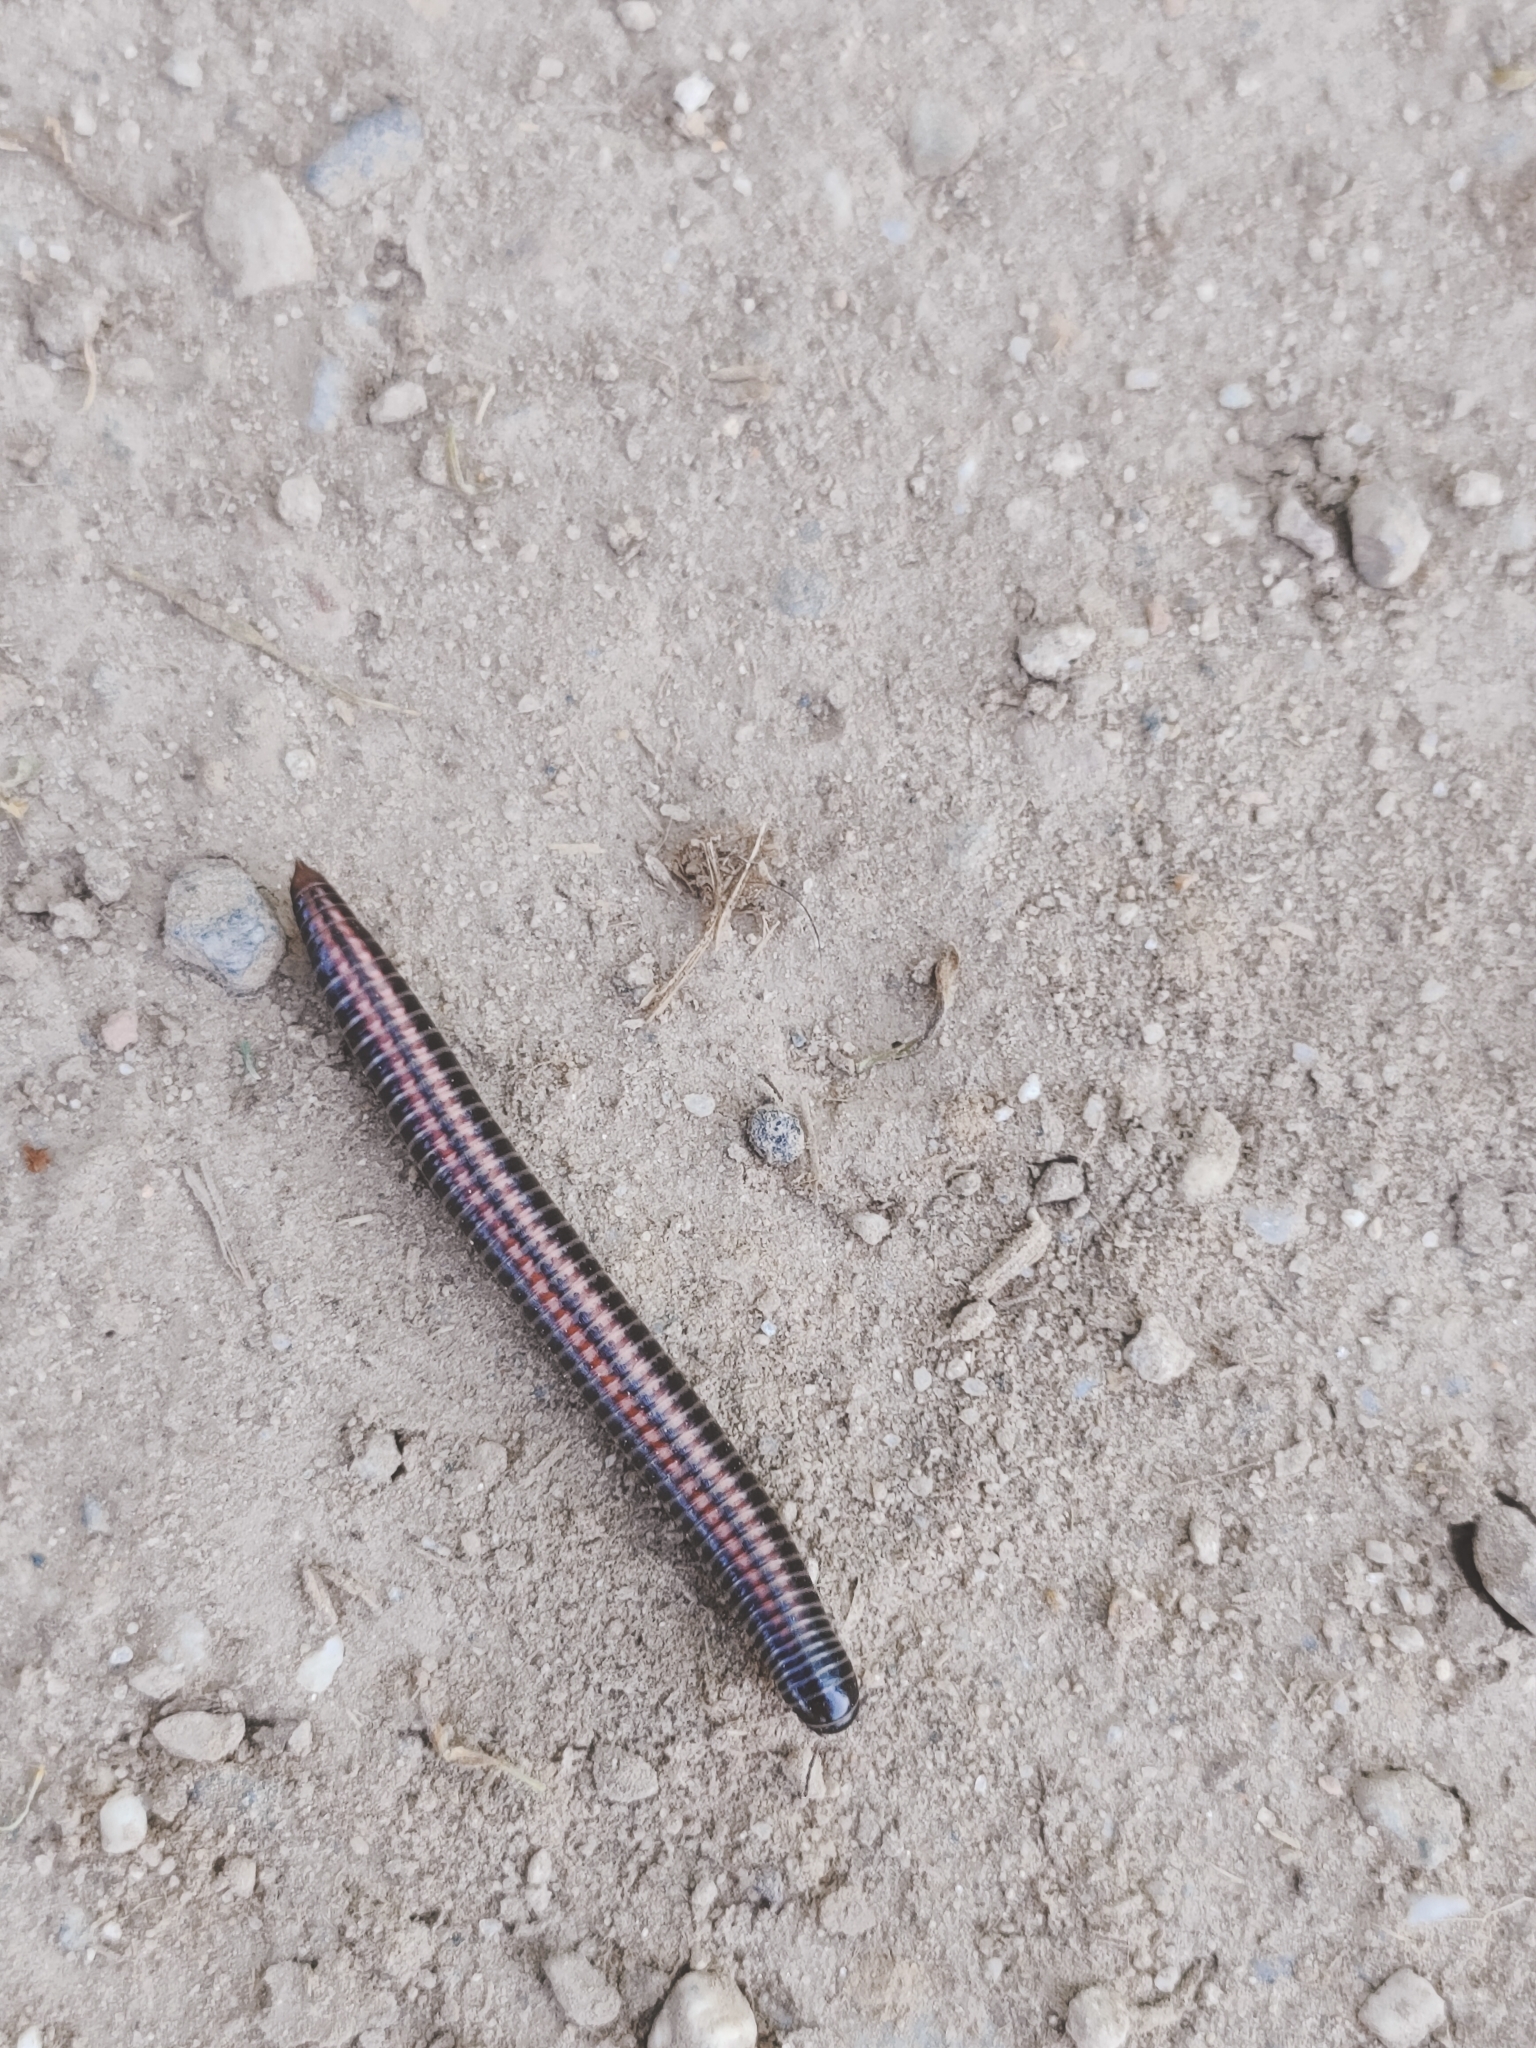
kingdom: Animalia
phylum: Arthropoda
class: Diplopoda
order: Julida
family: Julidae
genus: Ommatoiulus
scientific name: Ommatoiulus sabulosus
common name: Striped millipede
